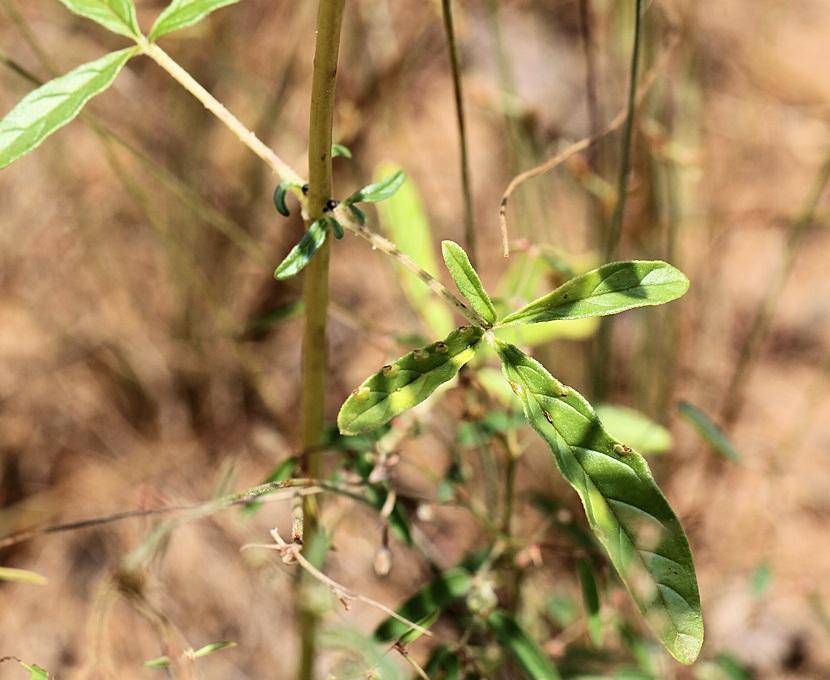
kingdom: Plantae
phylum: Tracheophyta
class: Magnoliopsida
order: Lamiales
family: Pedaliaceae
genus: Sesamum
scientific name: Sesamum alatum
